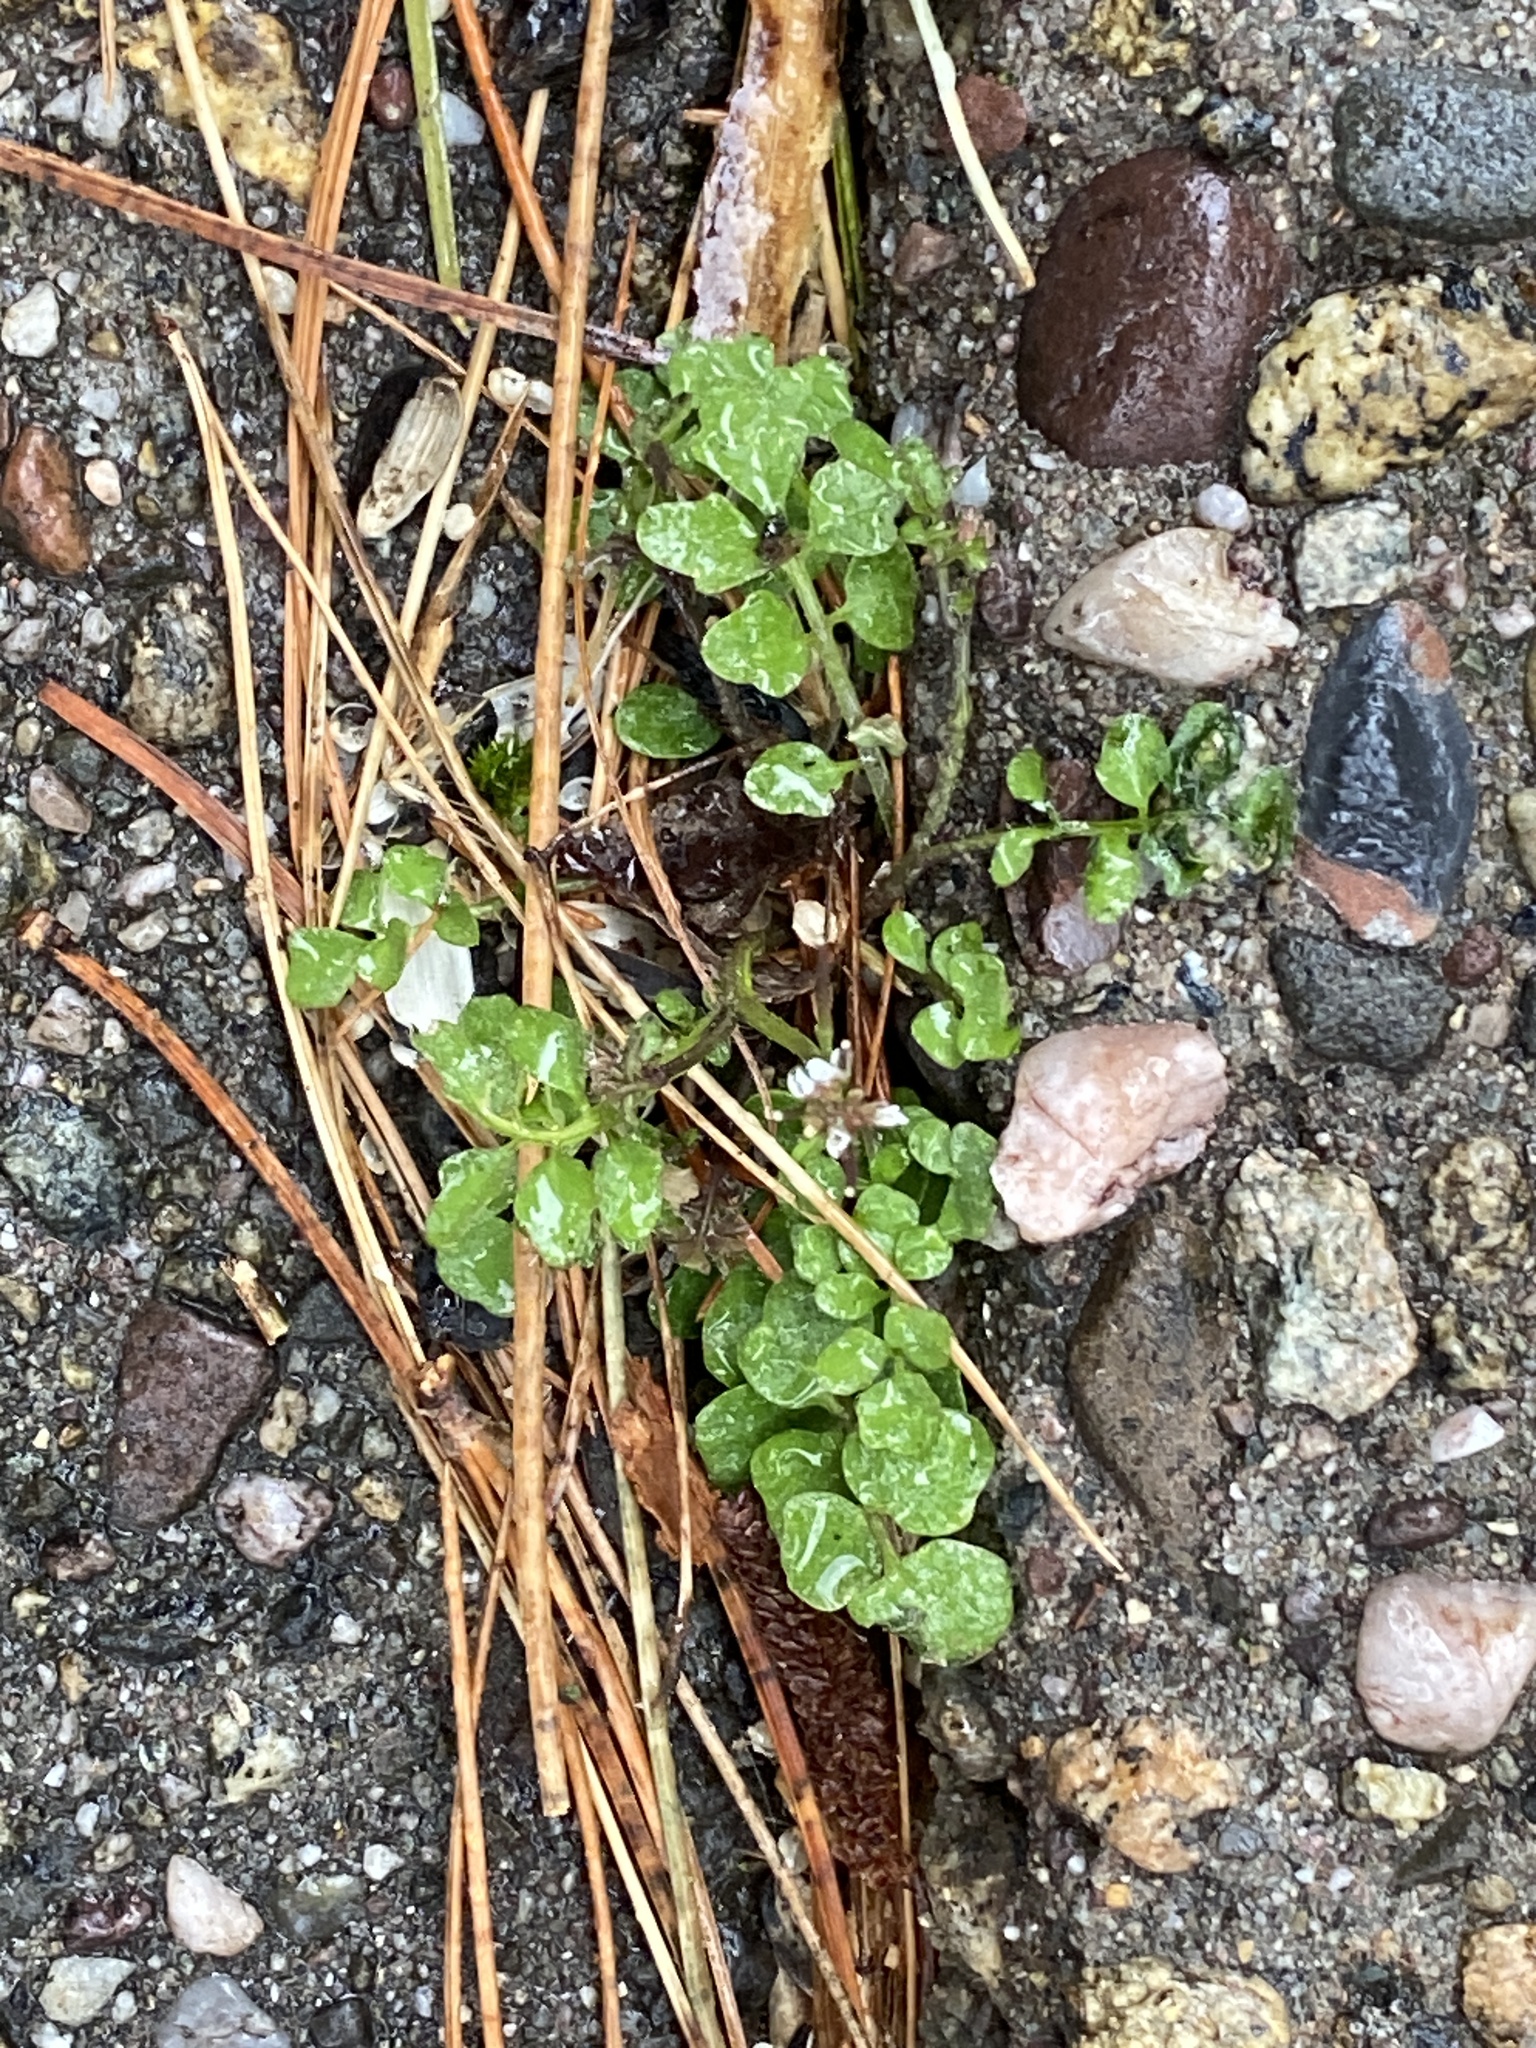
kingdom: Plantae
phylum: Tracheophyta
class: Magnoliopsida
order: Brassicales
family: Brassicaceae
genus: Cardamine
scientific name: Cardamine hirsuta
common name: Hairy bittercress
